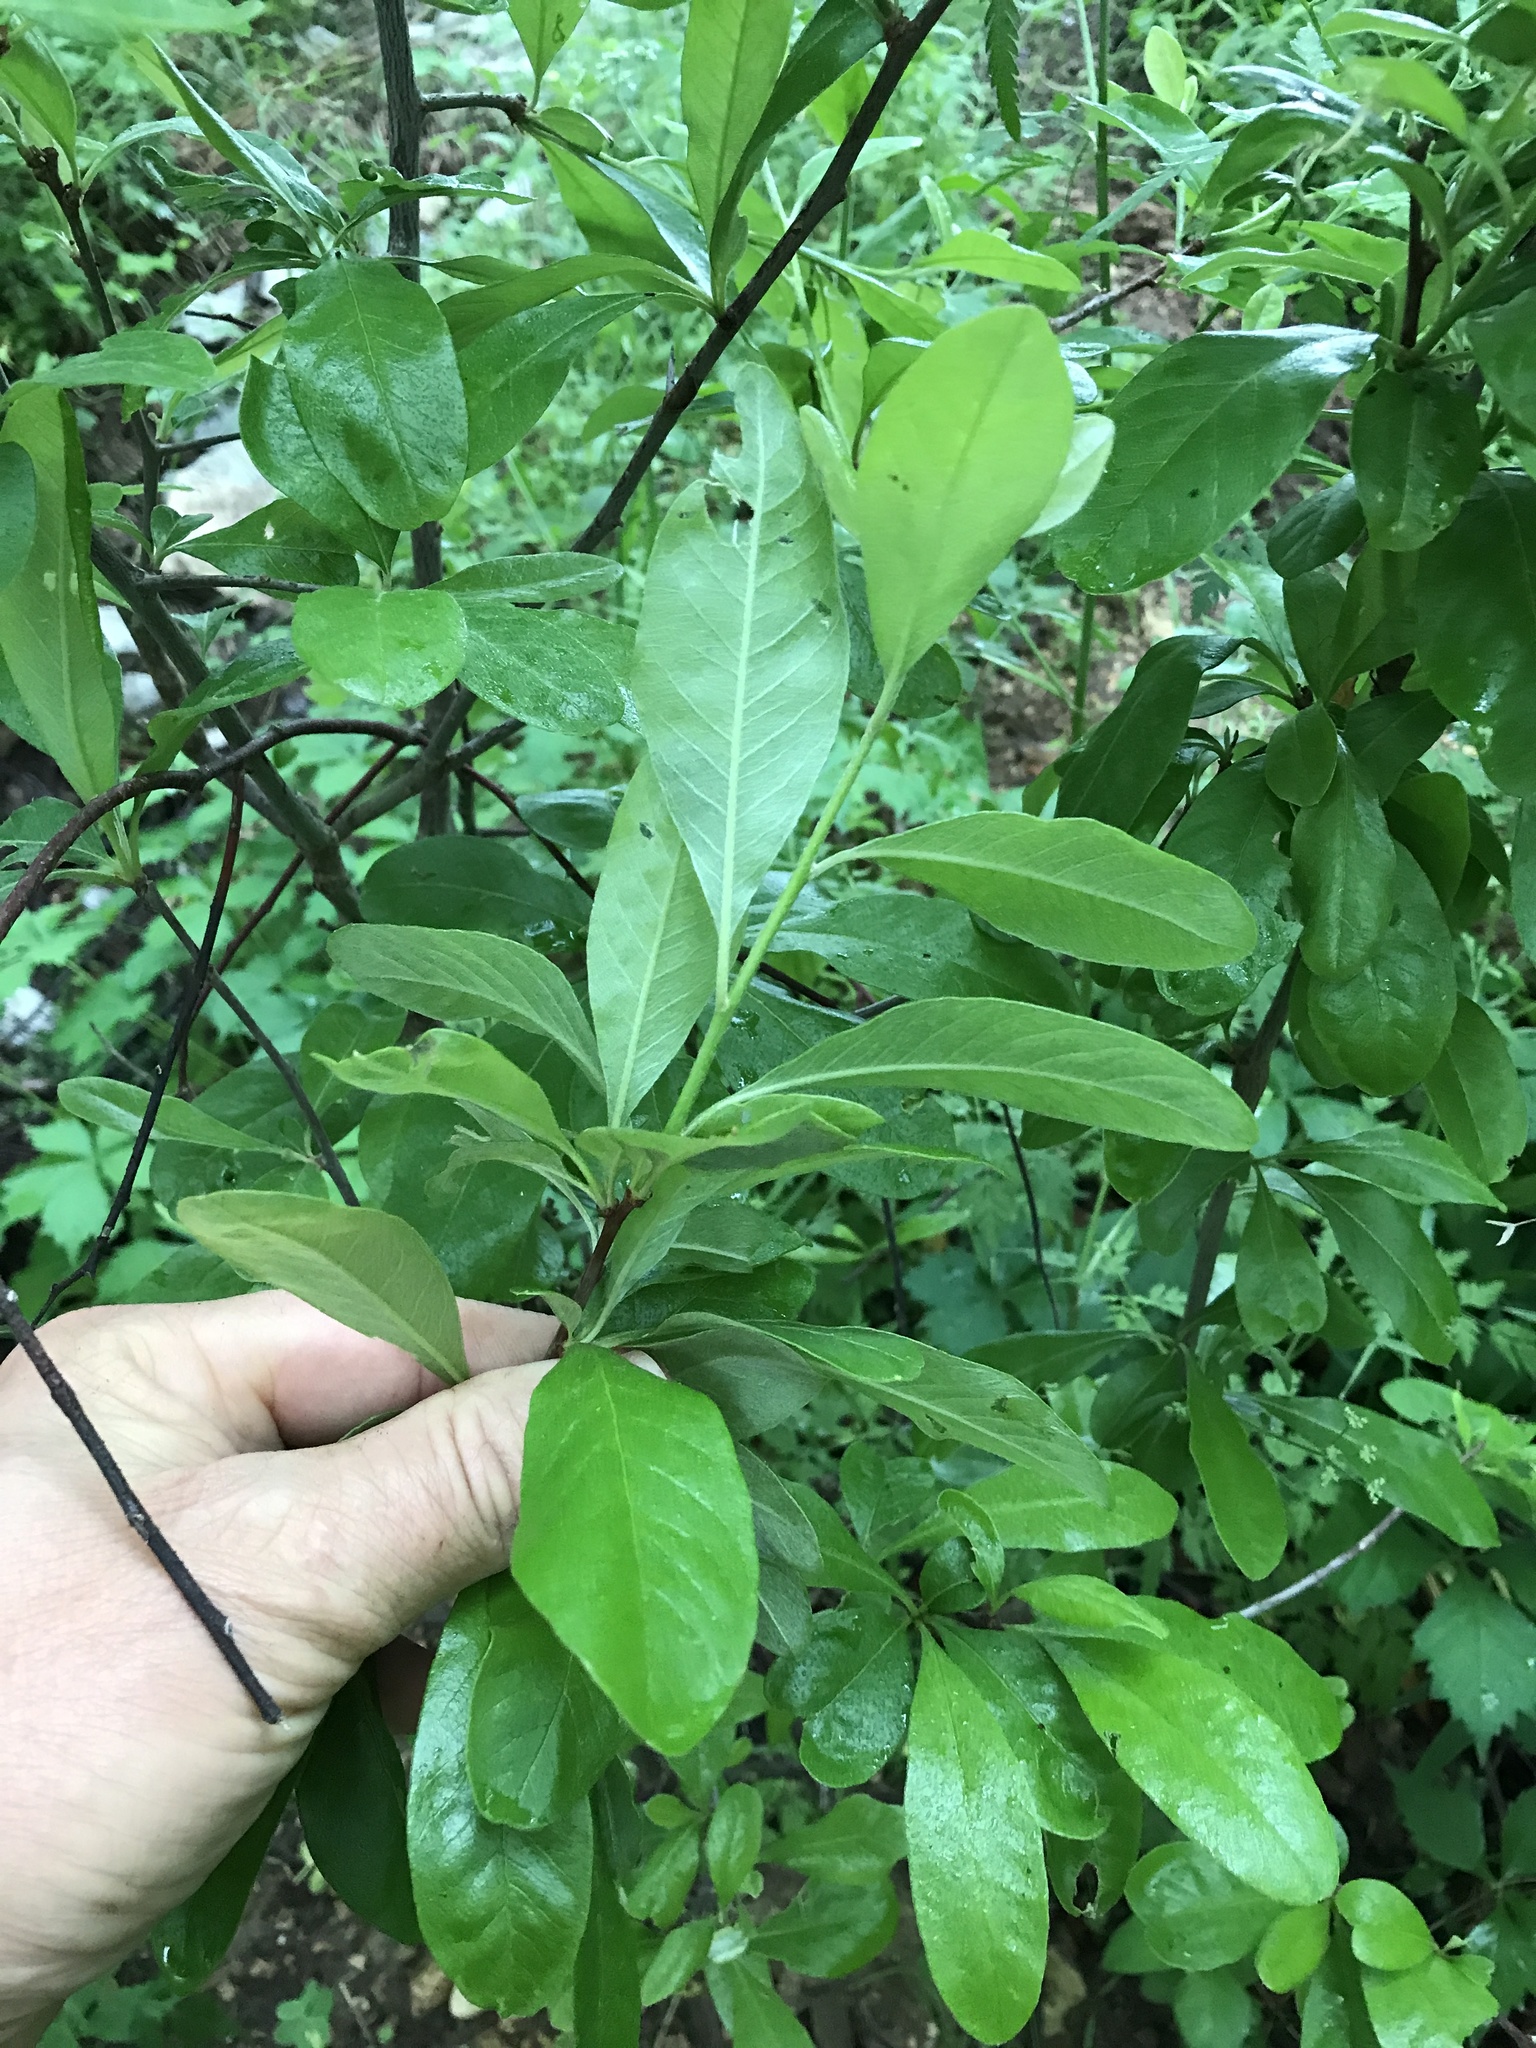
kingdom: Plantae
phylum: Tracheophyta
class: Magnoliopsida
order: Ericales
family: Sapotaceae
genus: Sideroxylon
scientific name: Sideroxylon lanuginosum
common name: Chittamwood
